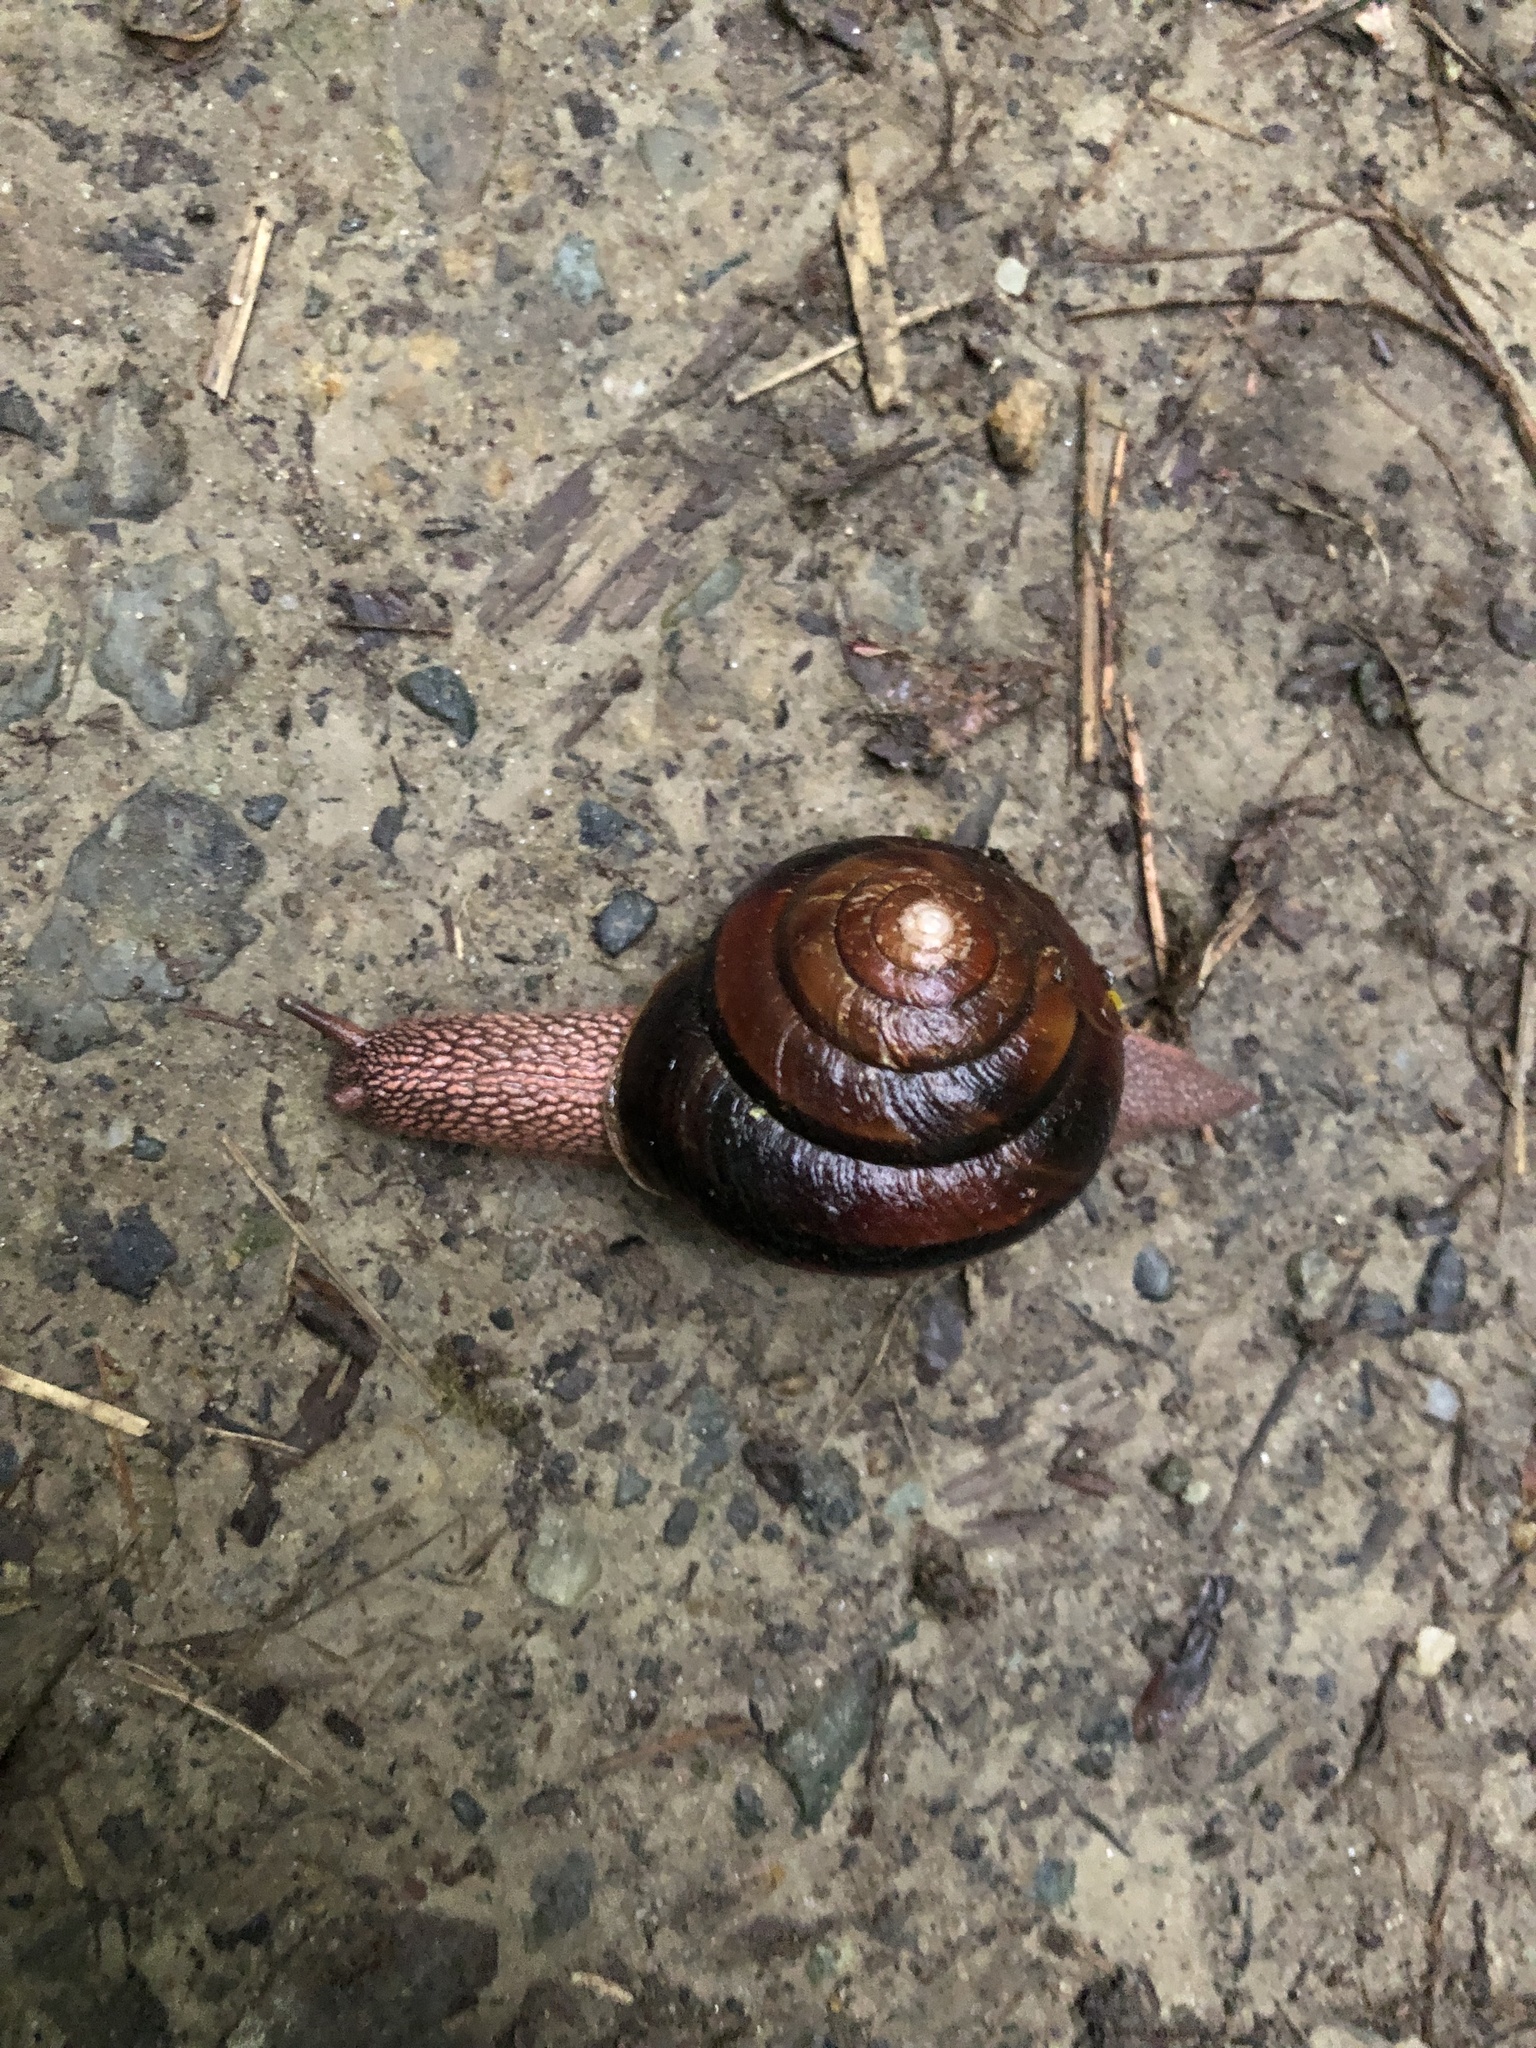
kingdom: Animalia
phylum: Mollusca
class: Gastropoda
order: Stylommatophora
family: Xanthonychidae
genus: Monadenia
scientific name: Monadenia fidelis
